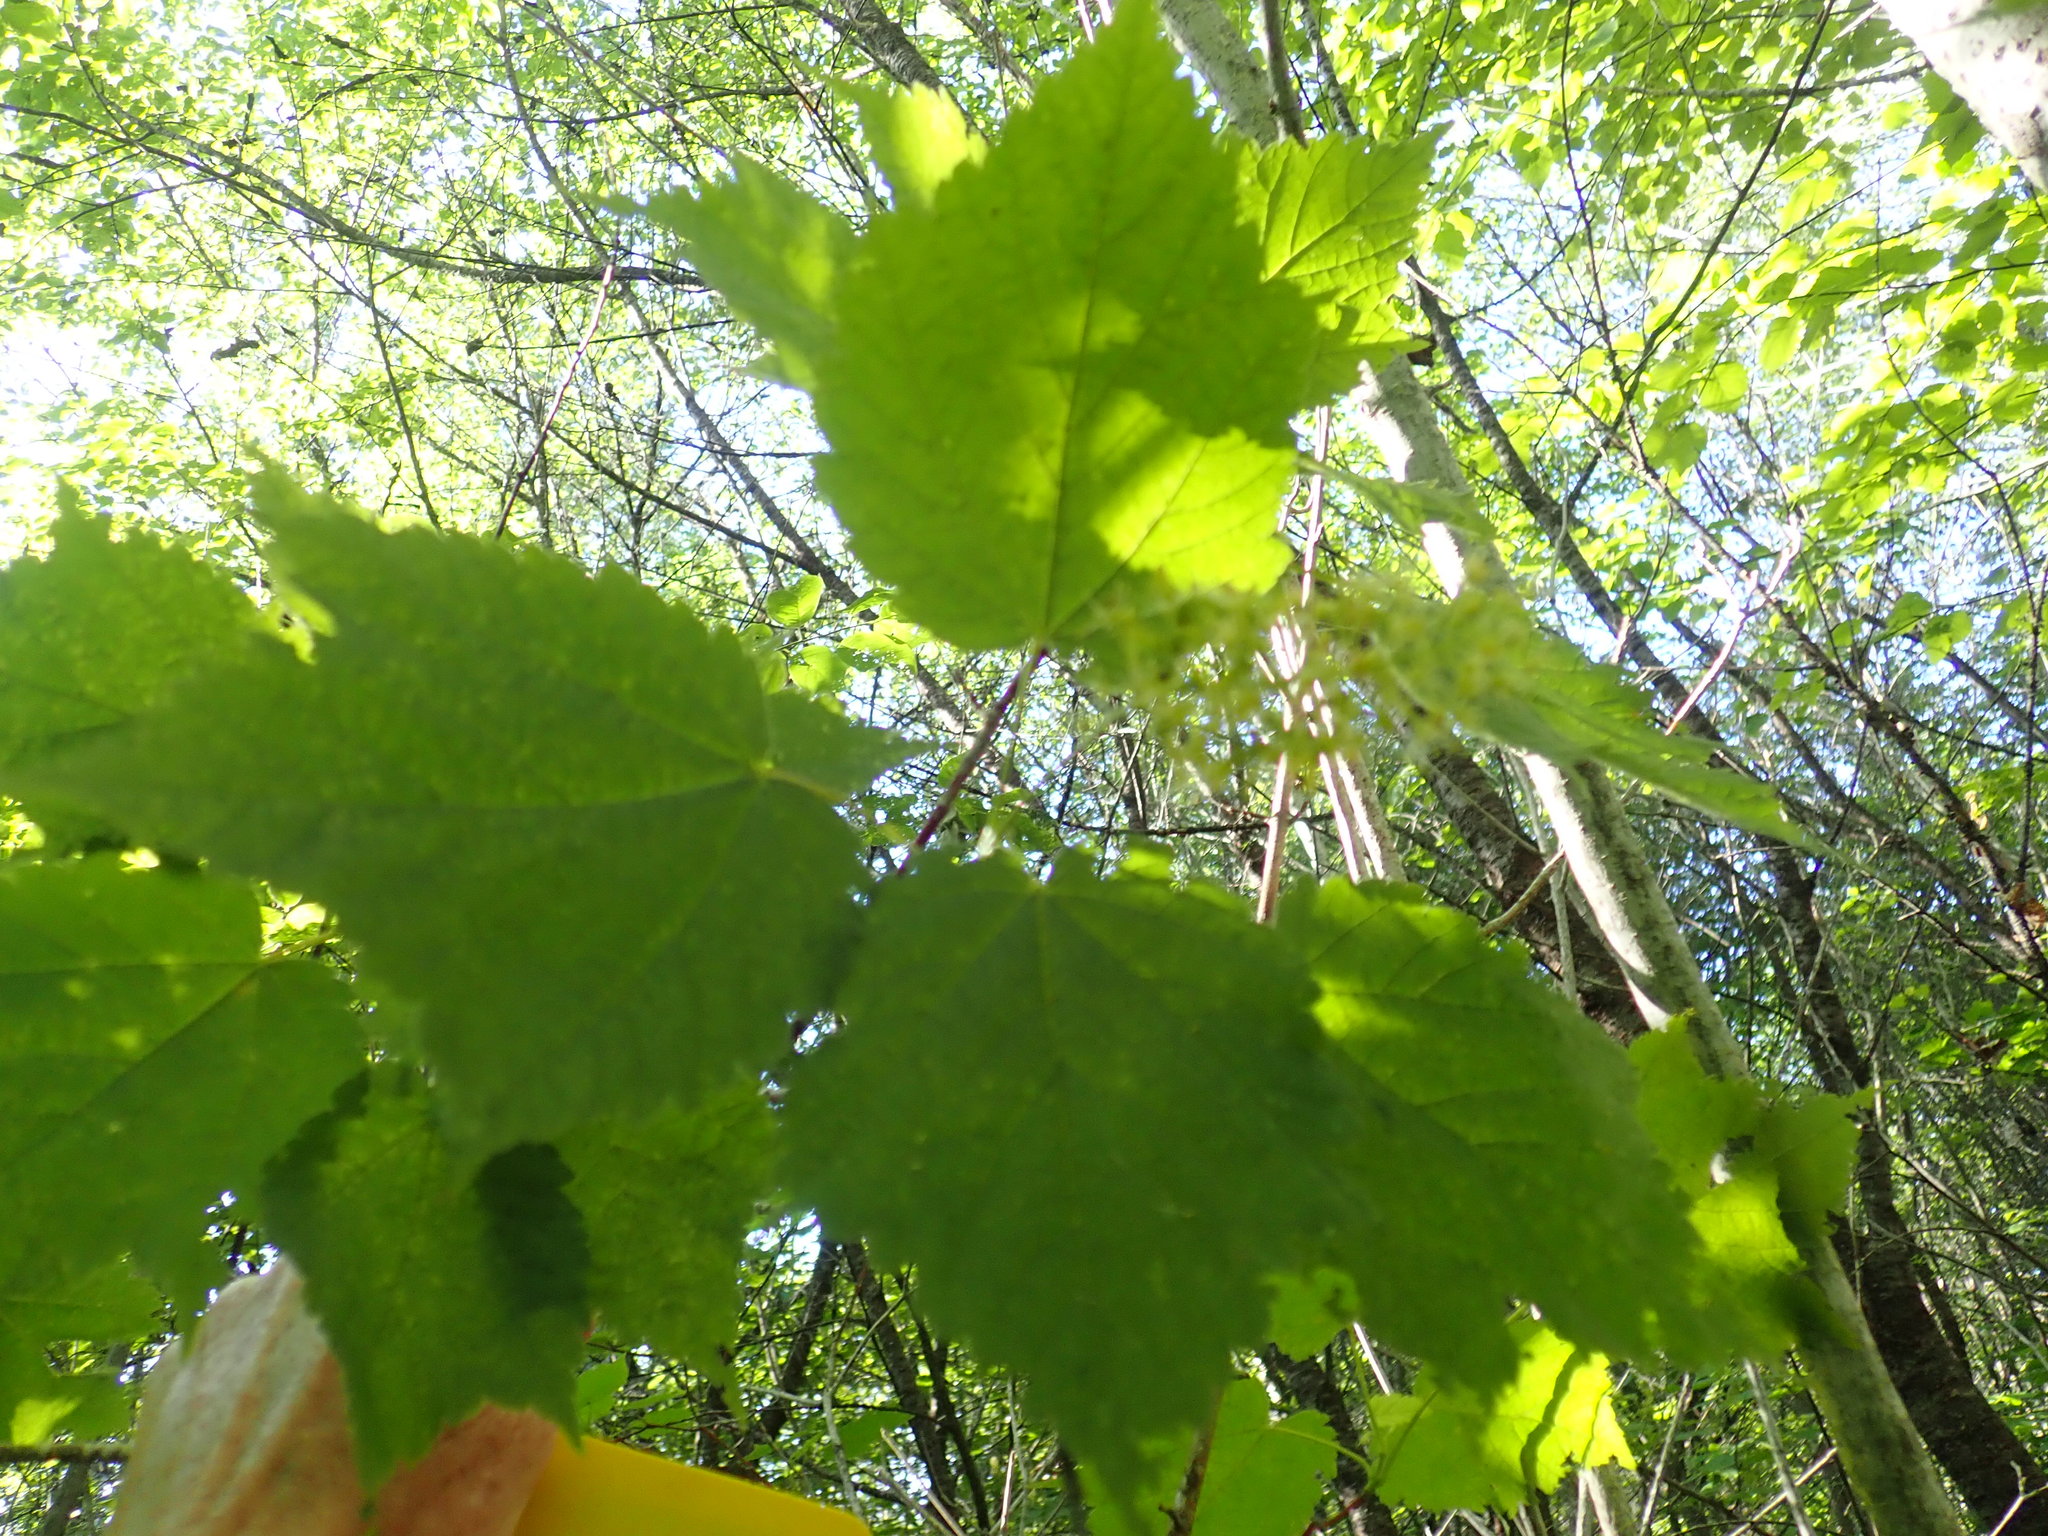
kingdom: Plantae
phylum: Tracheophyta
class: Magnoliopsida
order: Sapindales
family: Sapindaceae
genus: Acer
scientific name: Acer spicatum
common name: Mountain maple
